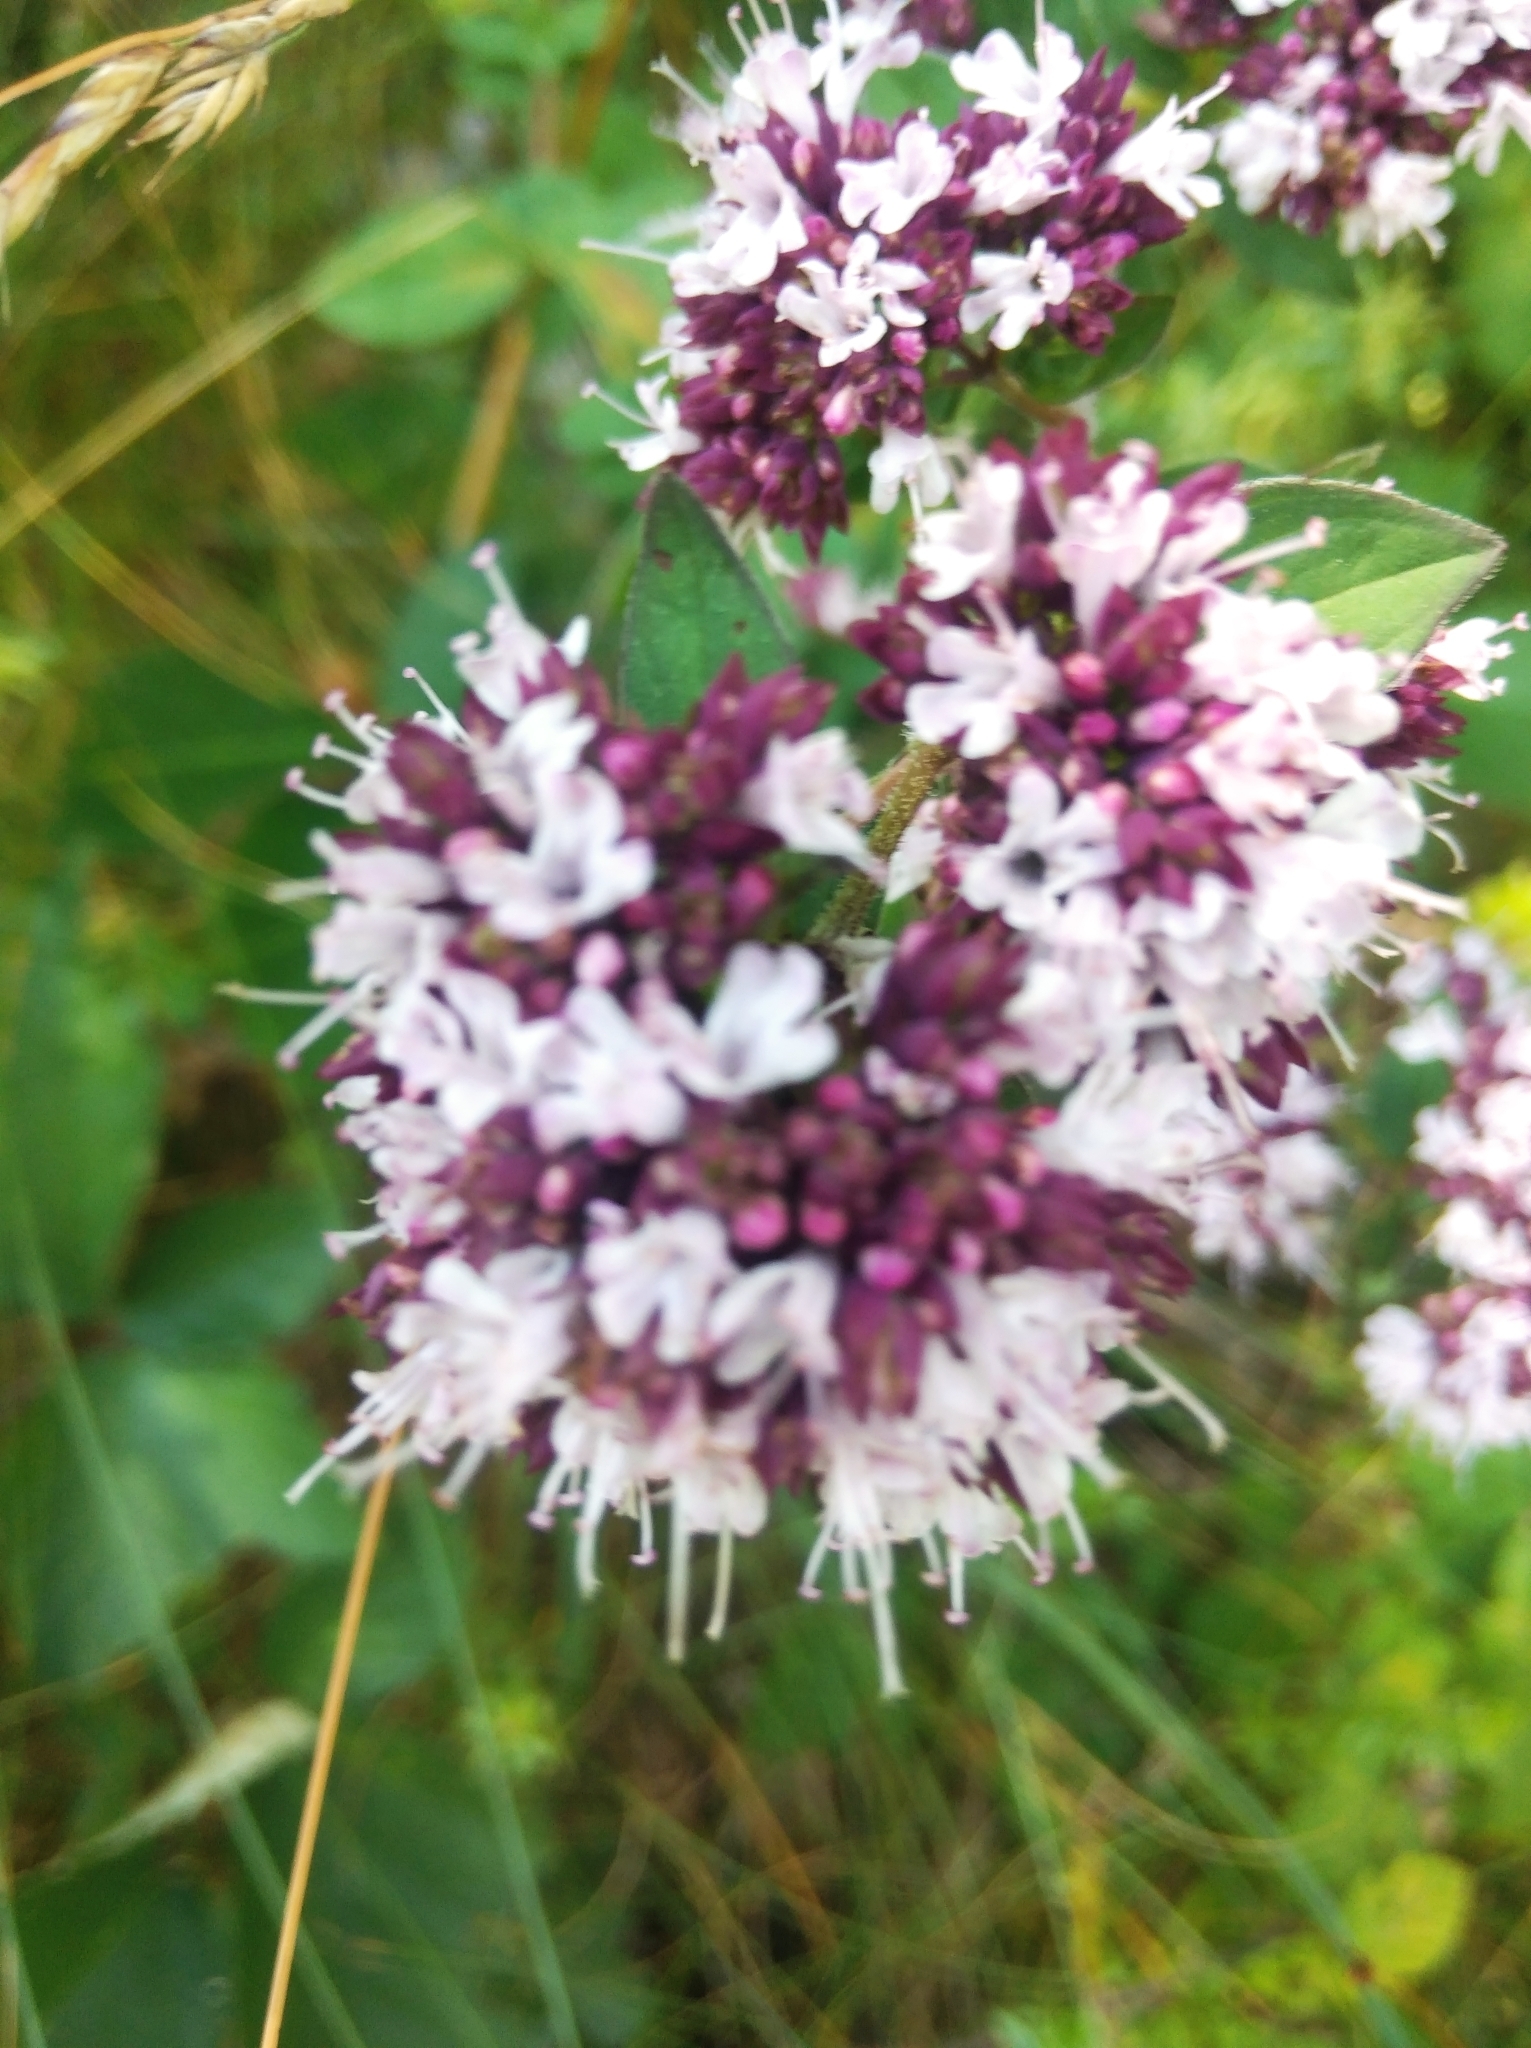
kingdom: Plantae
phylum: Tracheophyta
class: Magnoliopsida
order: Lamiales
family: Lamiaceae
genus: Origanum
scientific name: Origanum vulgare
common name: Wild marjoram
